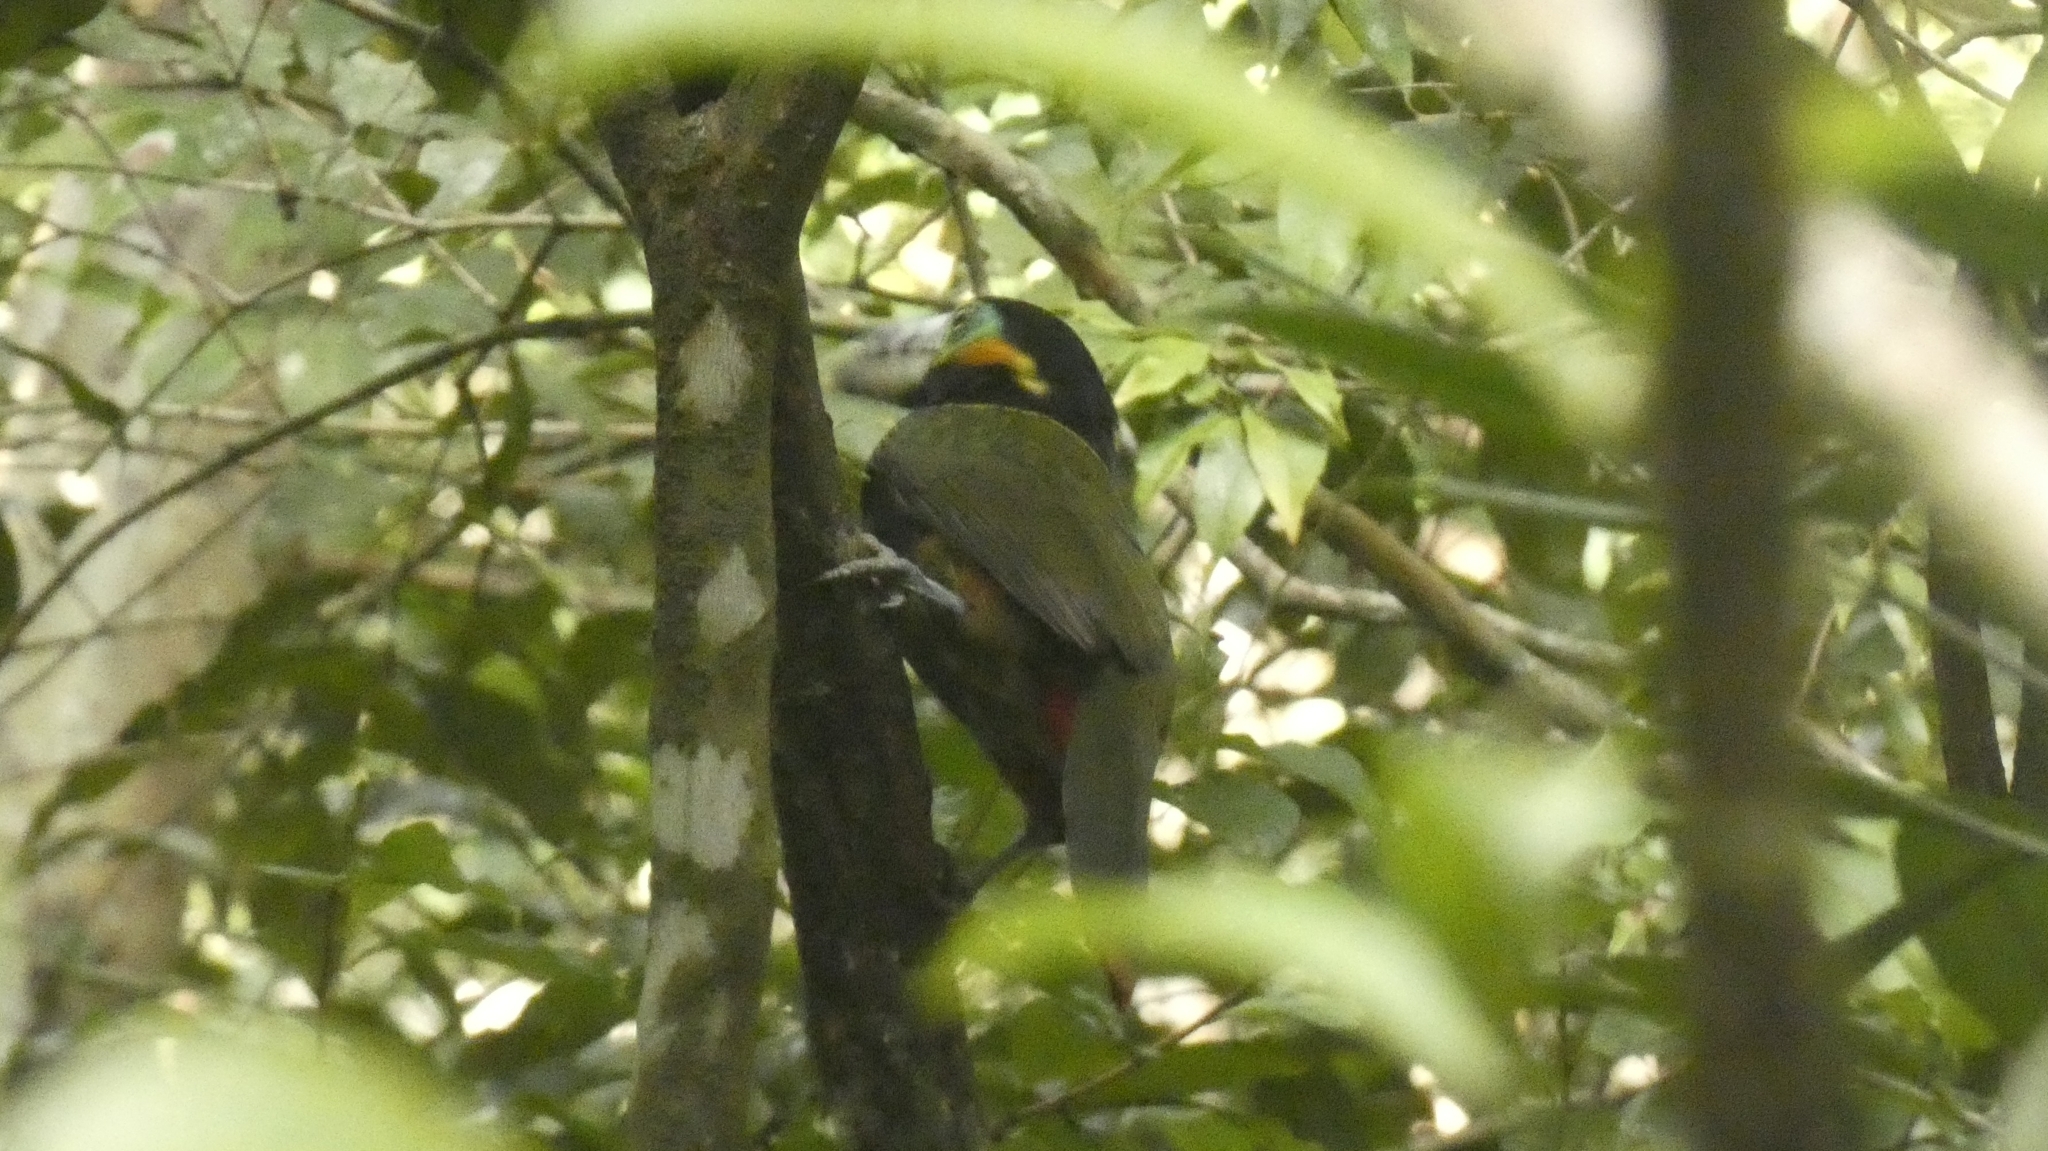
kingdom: Animalia
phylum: Chordata
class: Aves
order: Piciformes
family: Ramphastidae
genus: Selenidera
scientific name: Selenidera maculirostris
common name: Spot-billed toucanet
